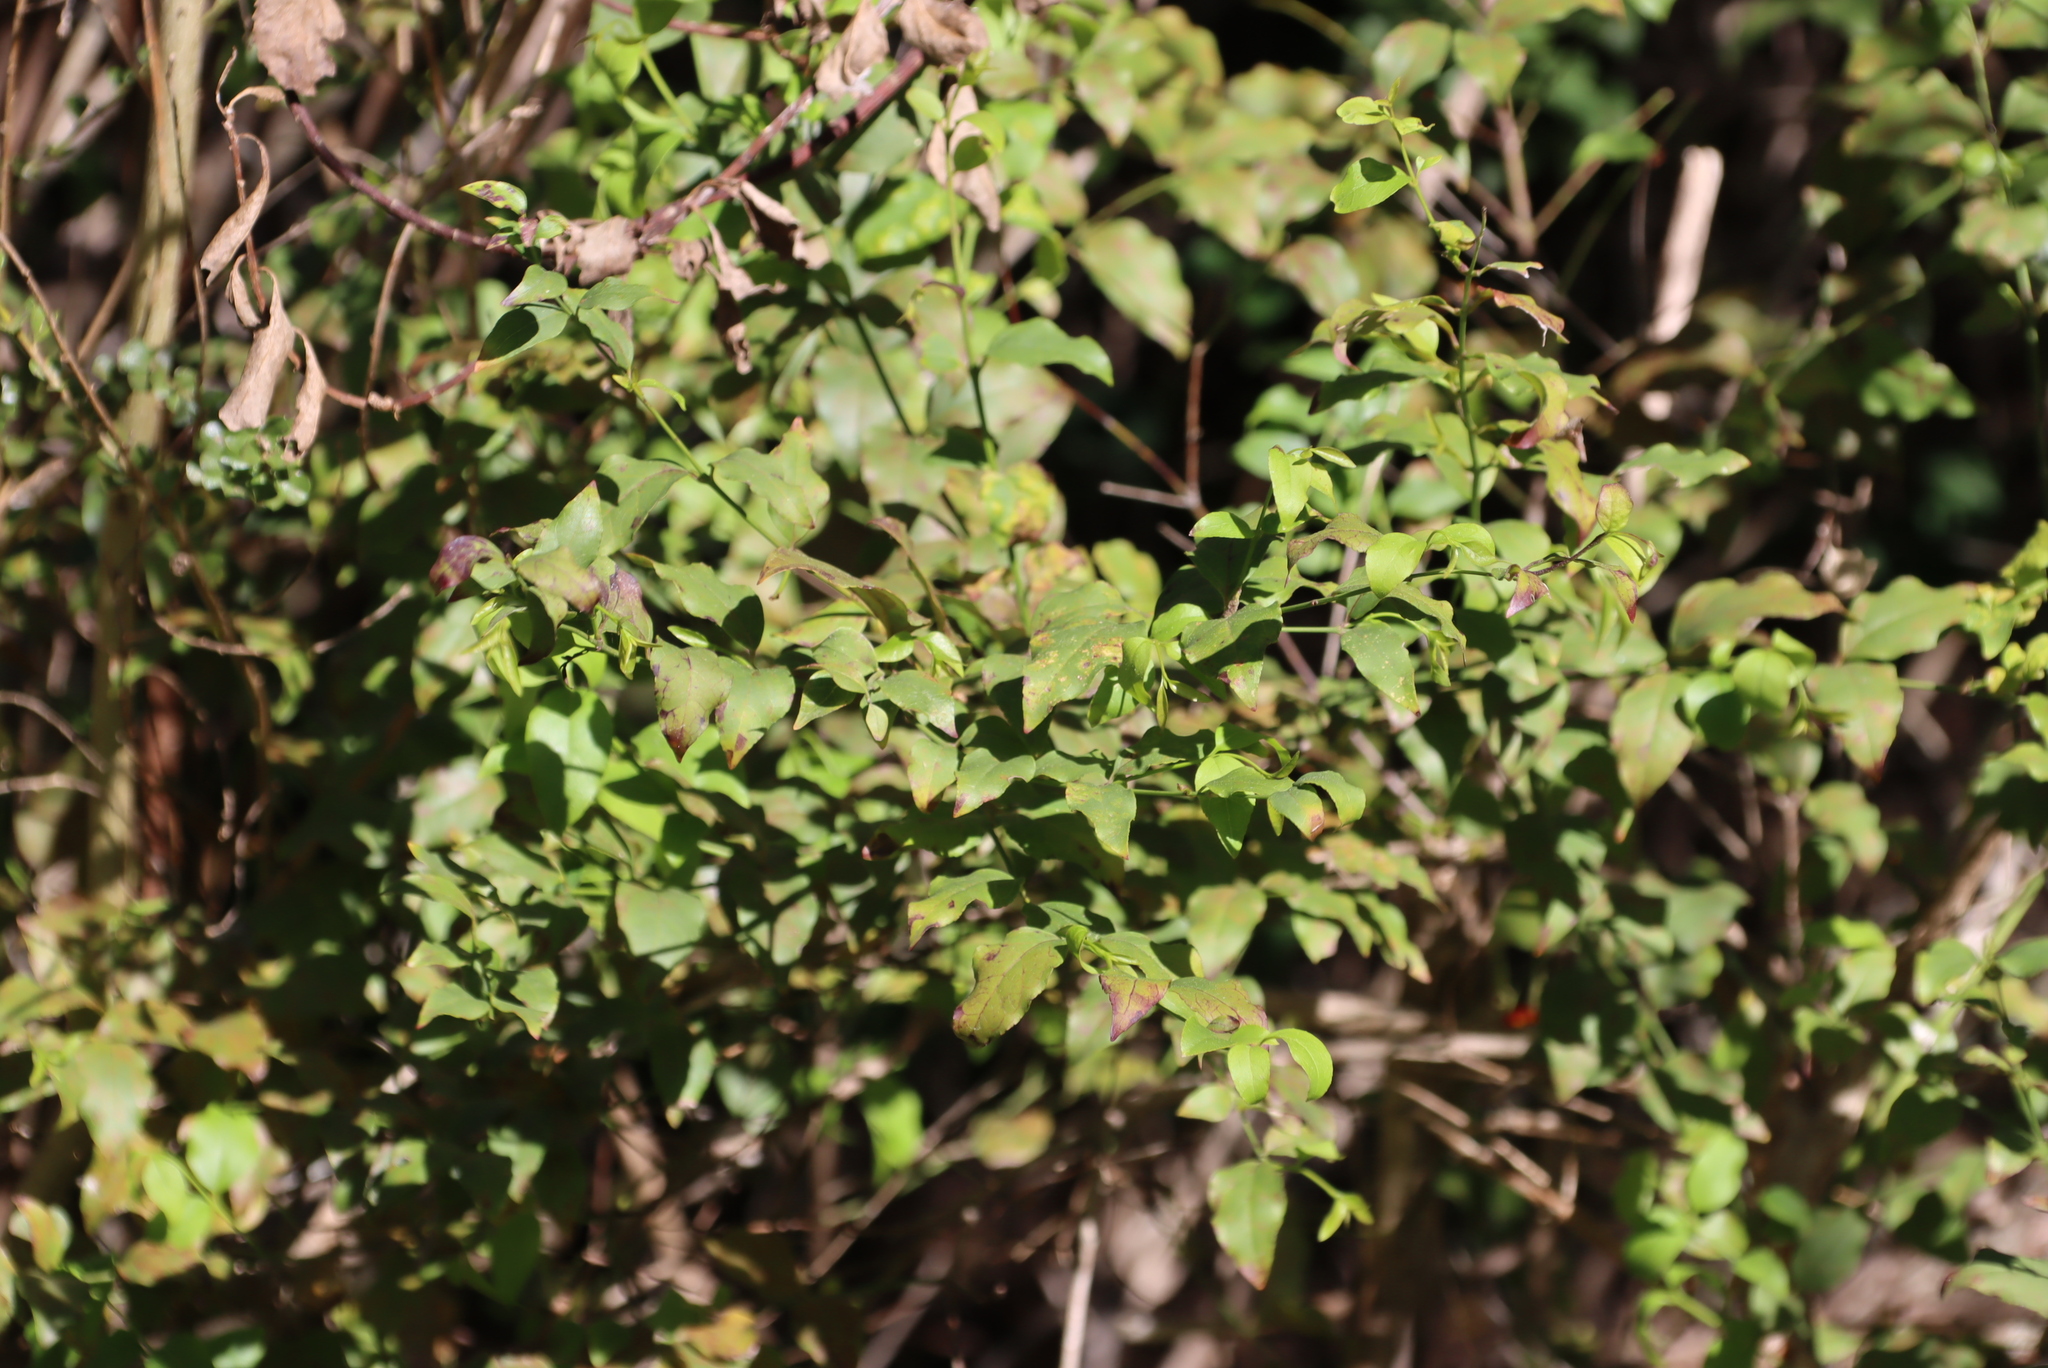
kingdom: Plantae
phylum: Tracheophyta
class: Magnoliopsida
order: Lamiales
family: Stilbaceae
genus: Halleria
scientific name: Halleria lucida
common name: Tree fuschia
